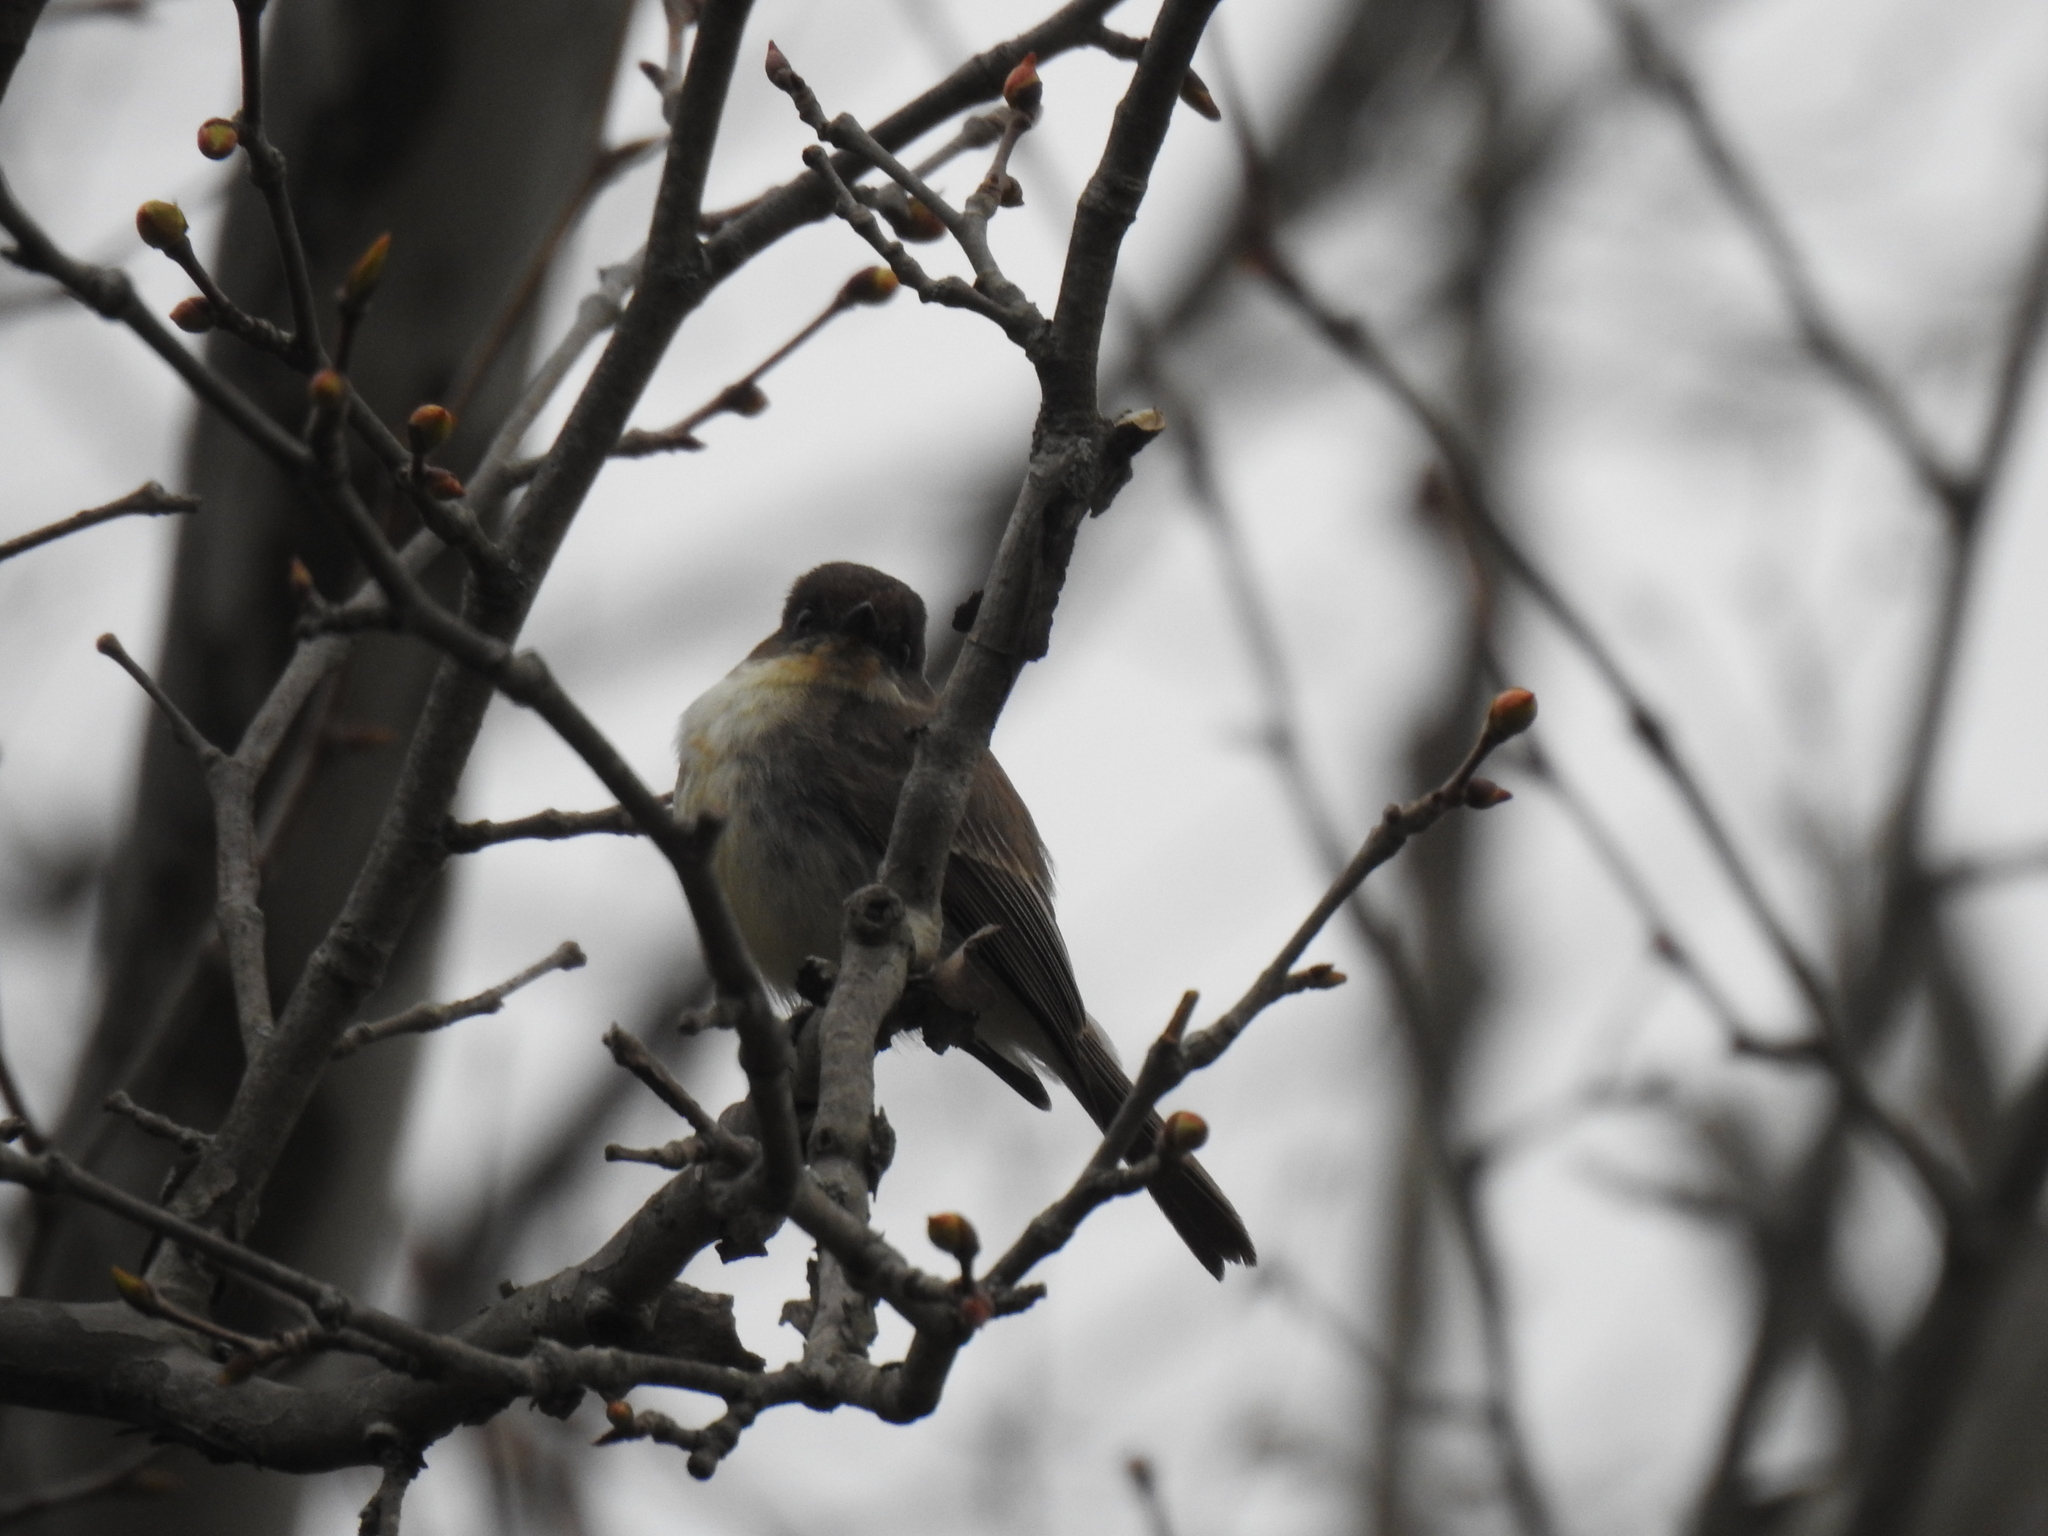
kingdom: Animalia
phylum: Chordata
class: Aves
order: Passeriformes
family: Tyrannidae
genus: Sayornis
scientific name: Sayornis phoebe
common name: Eastern phoebe
